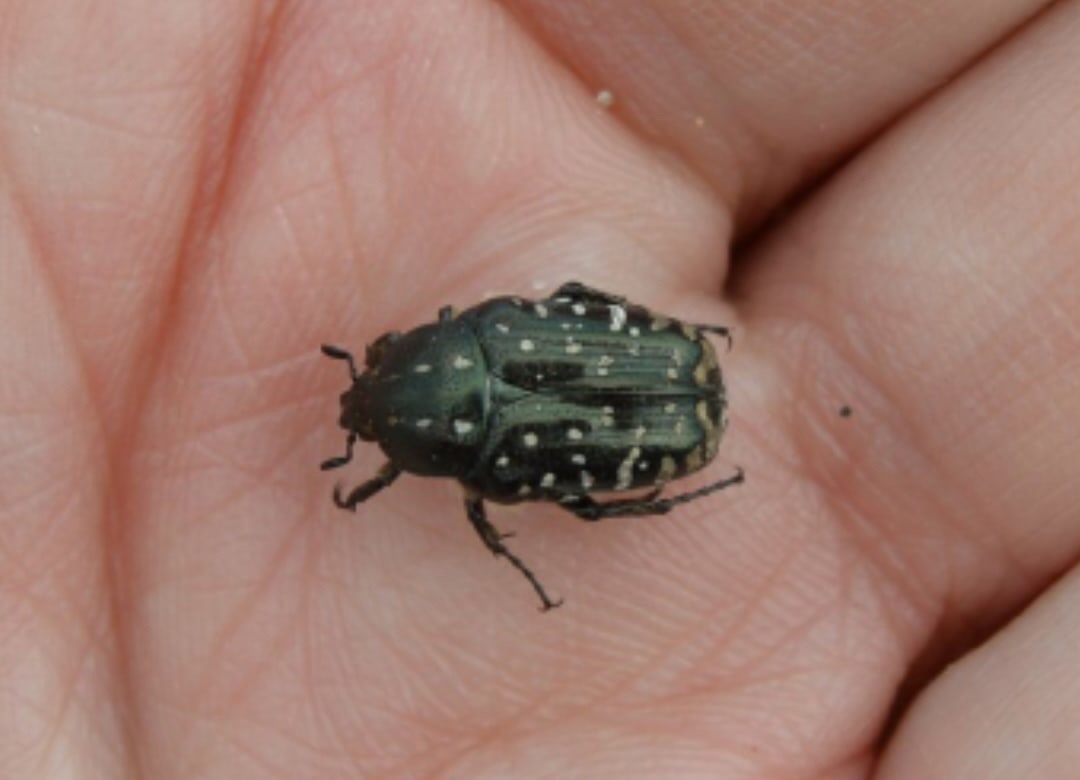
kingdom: Animalia
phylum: Arthropoda
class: Insecta
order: Coleoptera
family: Scarabaeidae
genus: Oxythyrea
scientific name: Oxythyrea funesta
